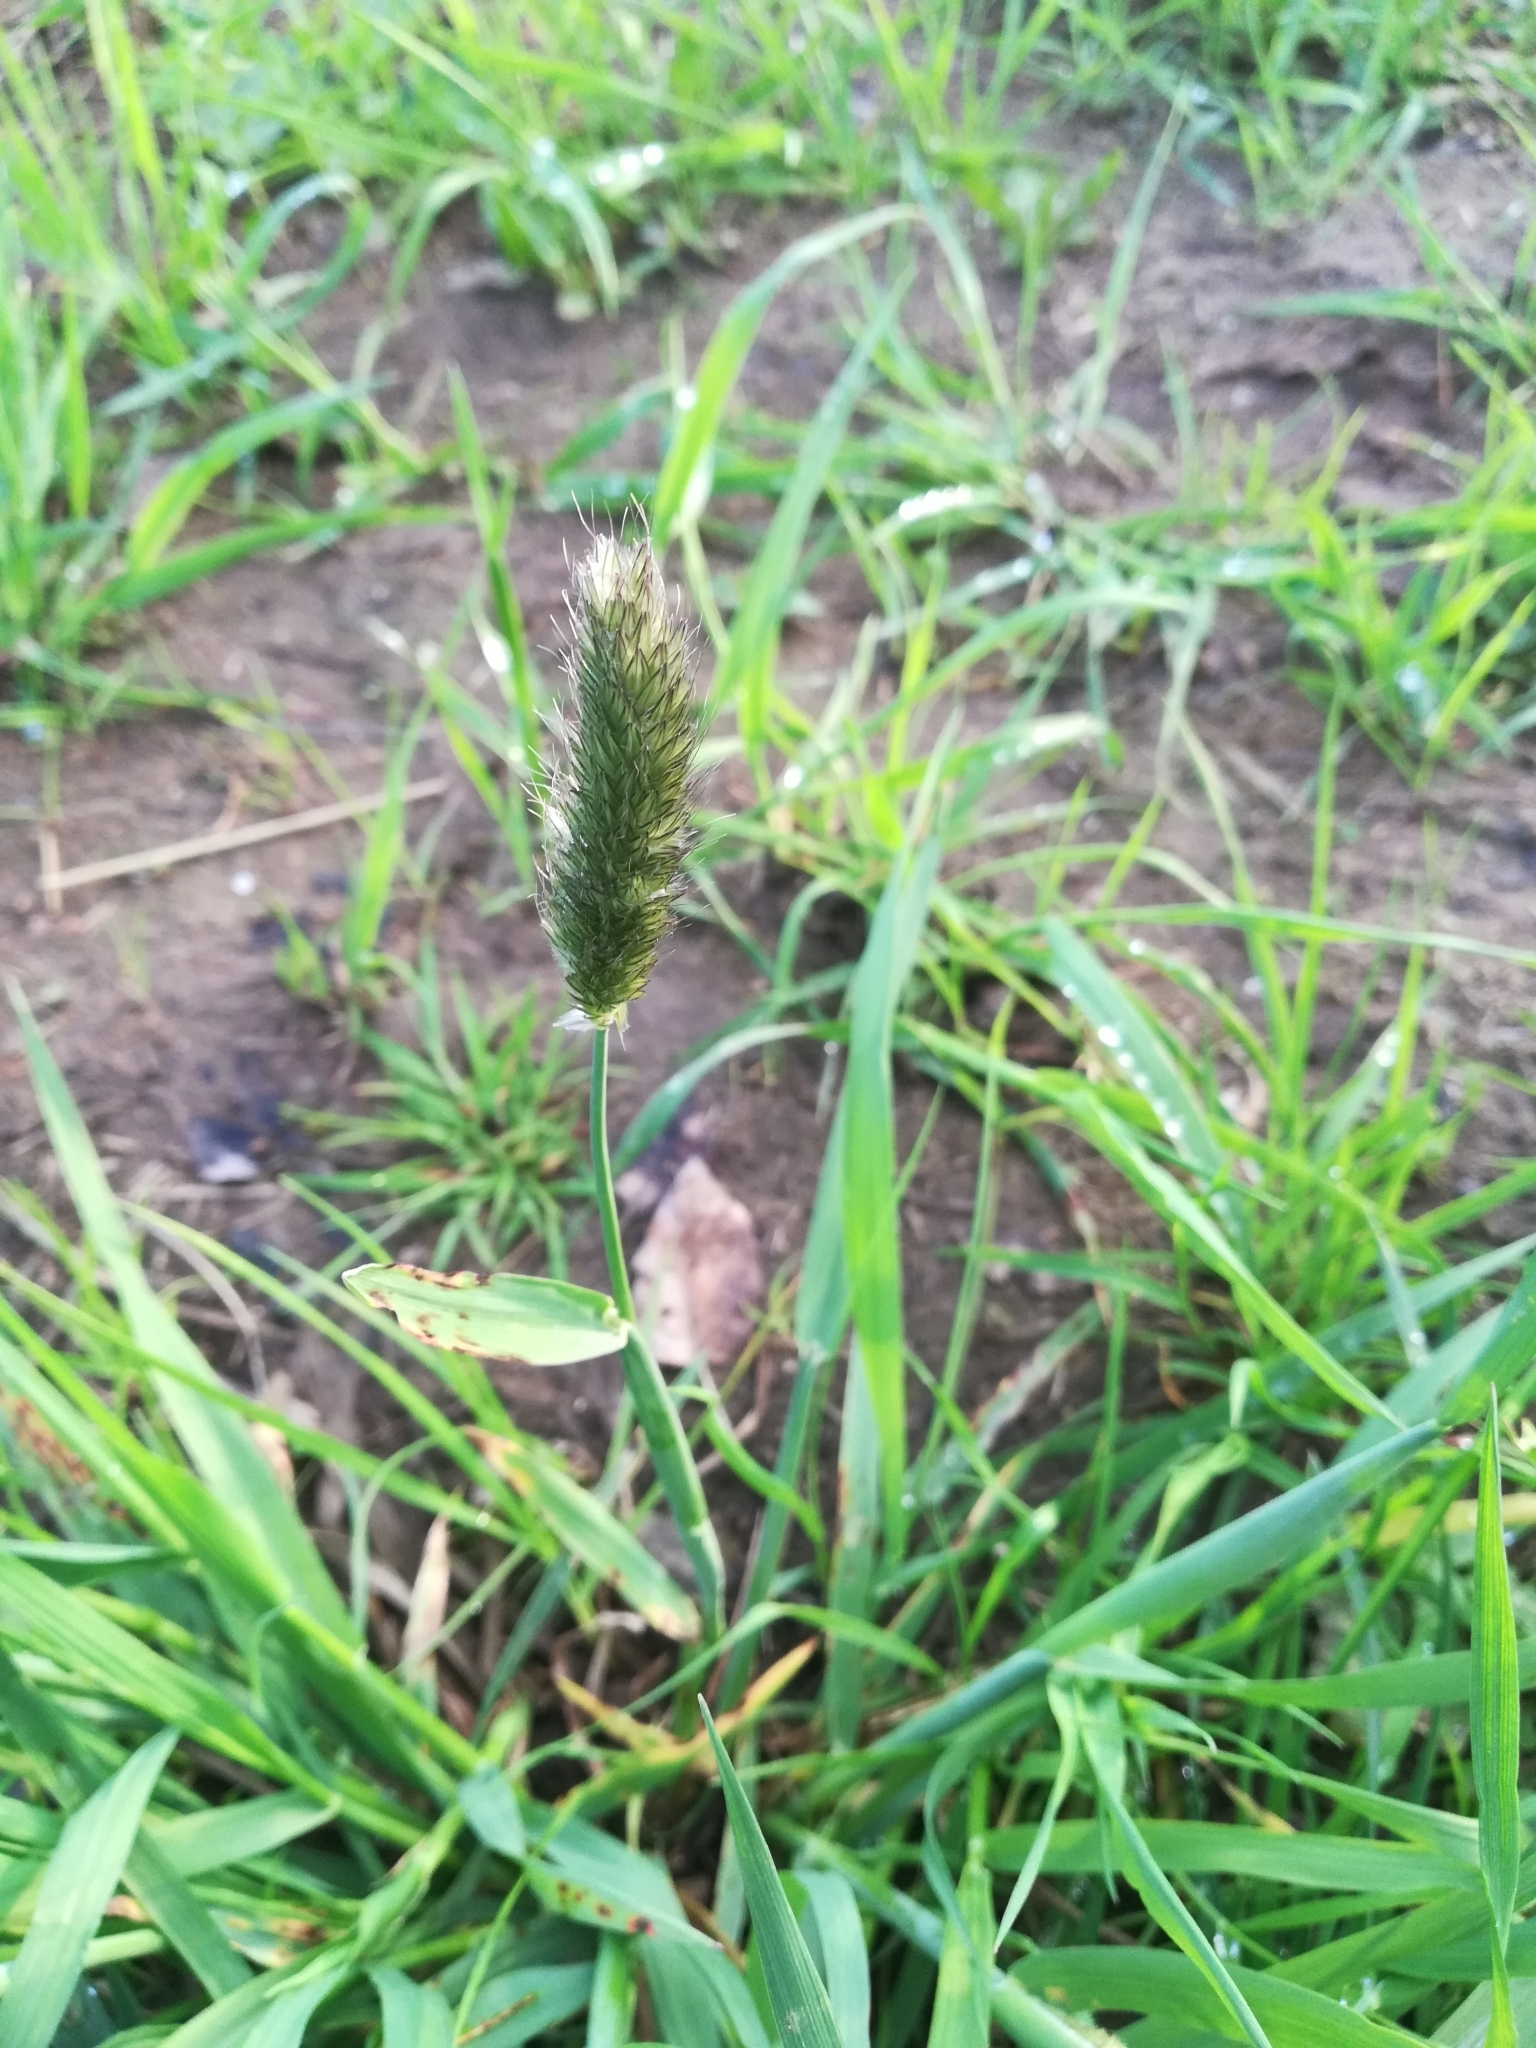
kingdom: Plantae
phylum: Tracheophyta
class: Liliopsida
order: Poales
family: Poaceae
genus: Alopecurus
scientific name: Alopecurus pratensis
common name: Meadow foxtail
